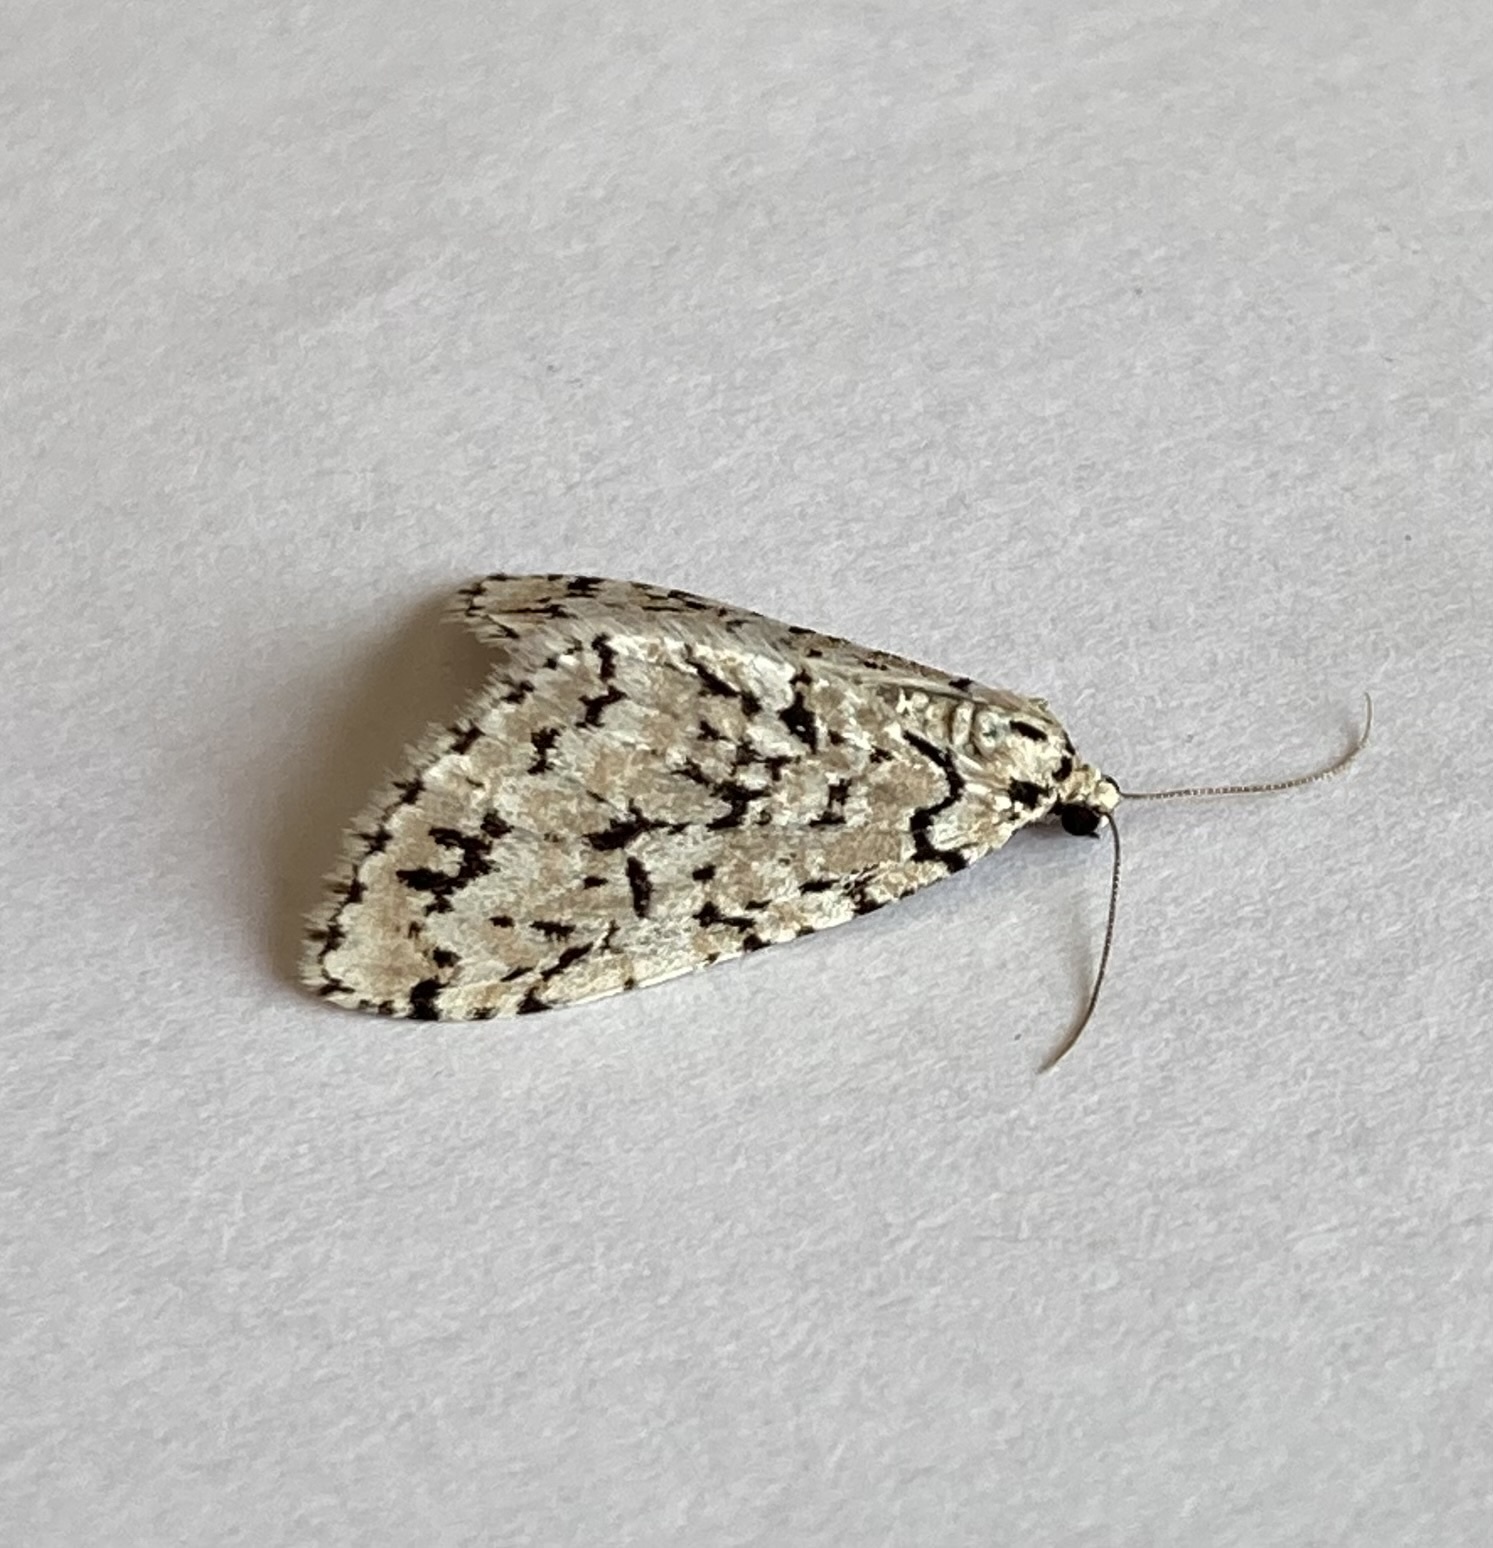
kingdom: Animalia
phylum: Arthropoda
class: Insecta
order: Lepidoptera
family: Geometridae
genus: Cladara
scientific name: Cladara atroliturata
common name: Scribbler
